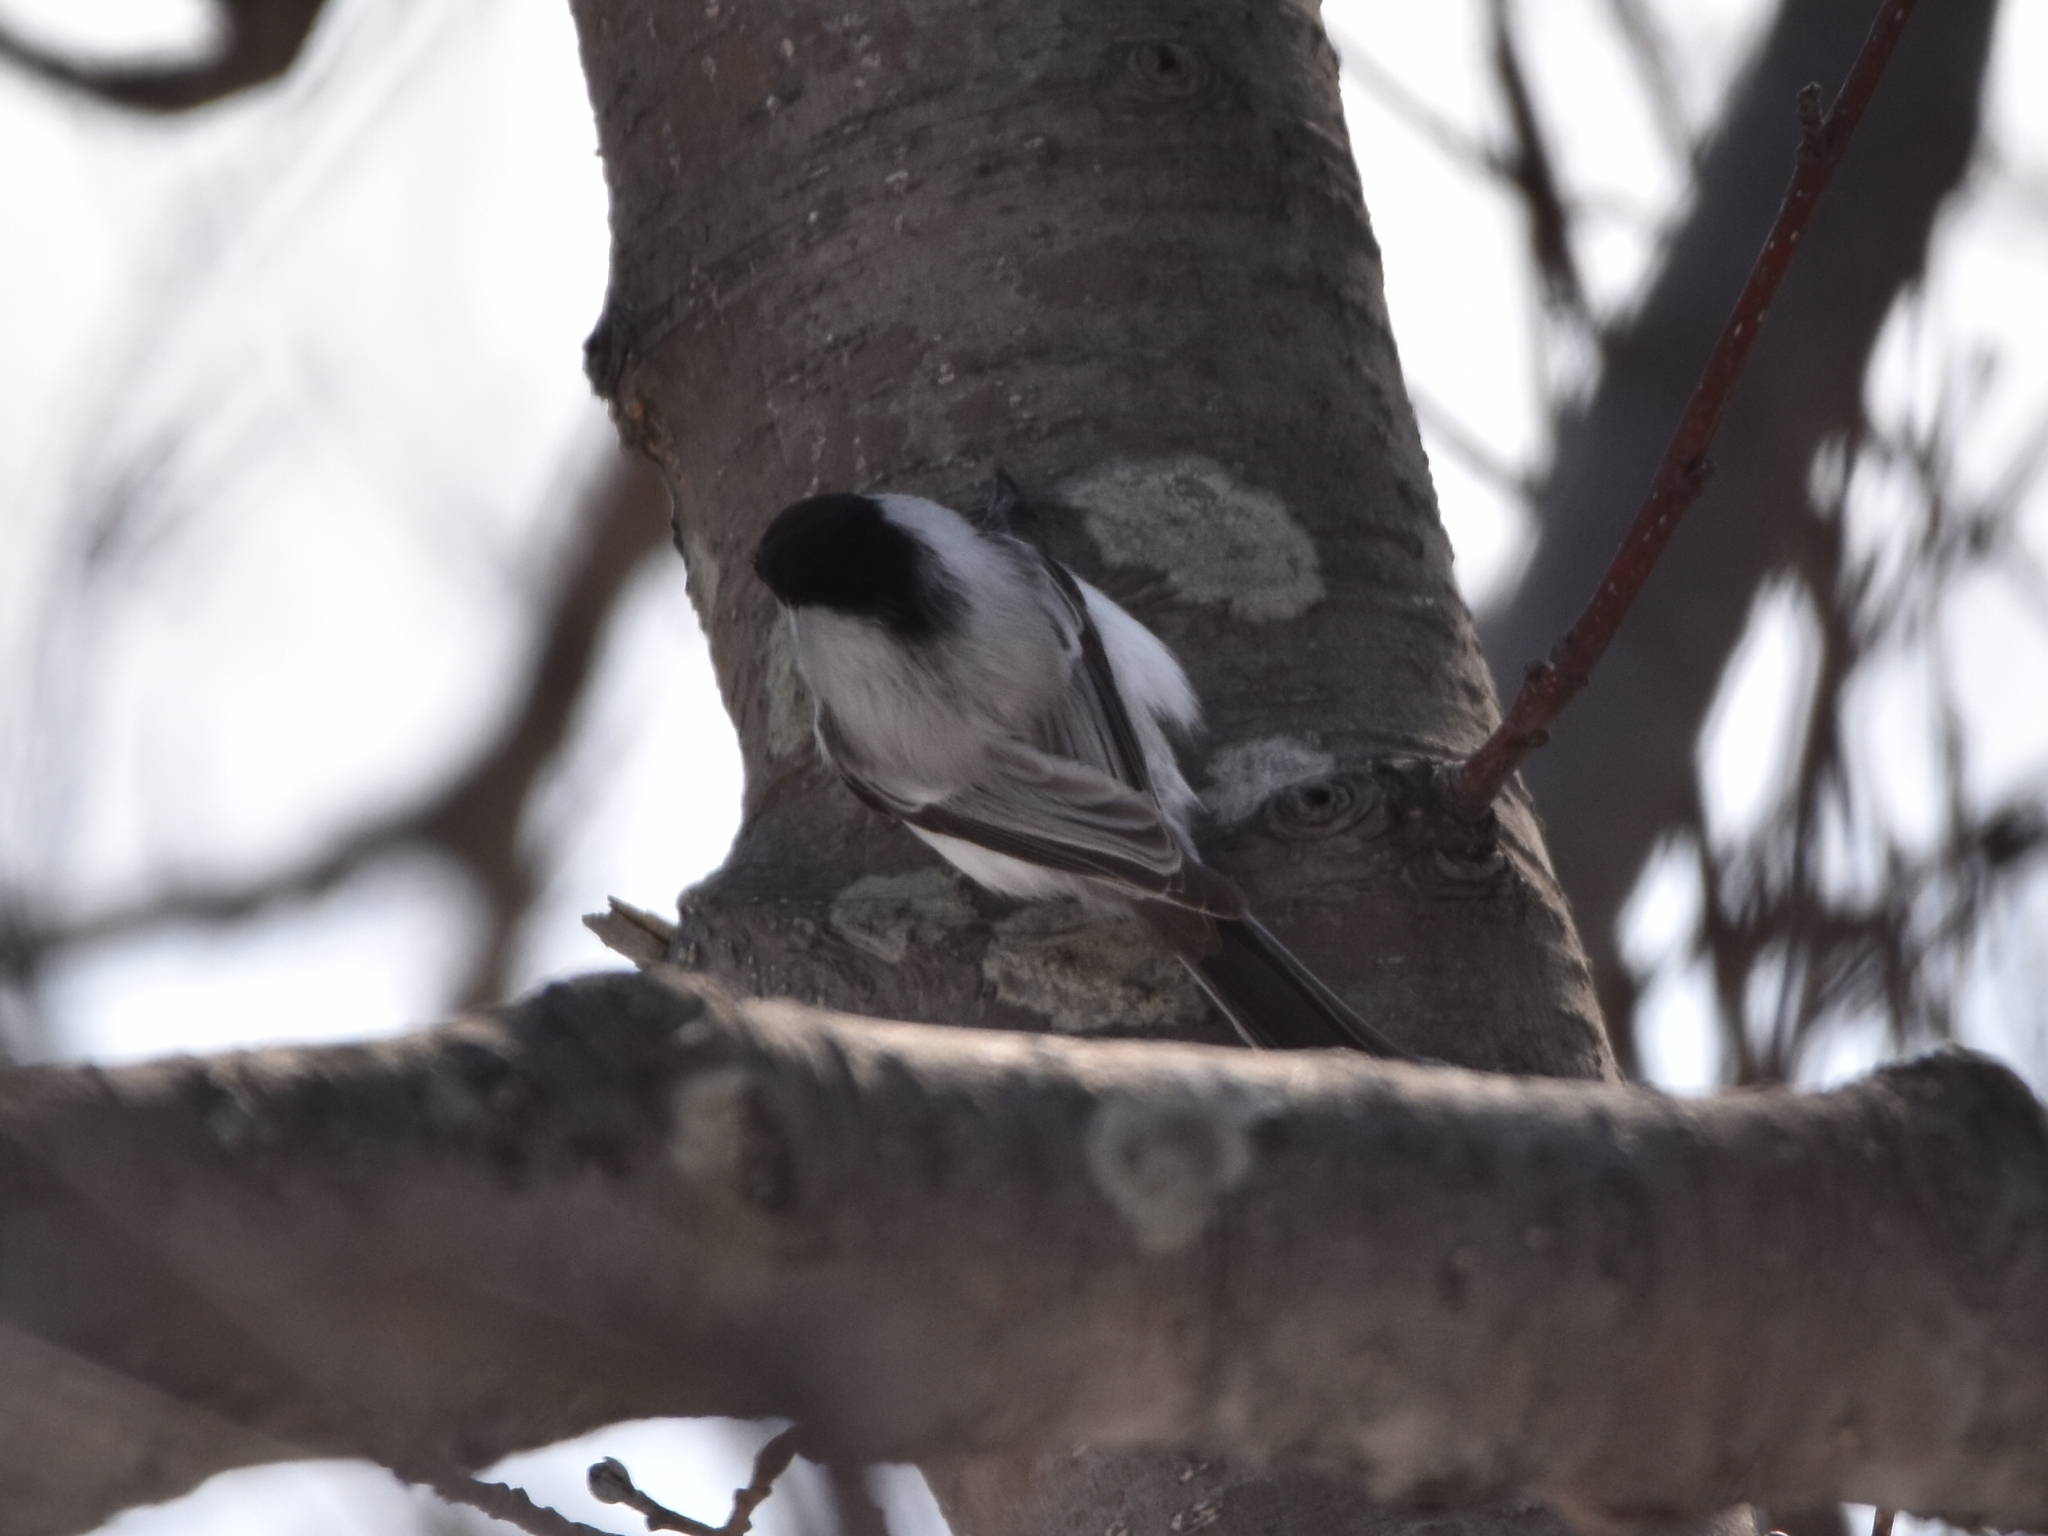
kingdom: Animalia
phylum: Chordata
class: Aves
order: Passeriformes
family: Paridae
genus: Poecile
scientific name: Poecile montanus
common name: Willow tit
